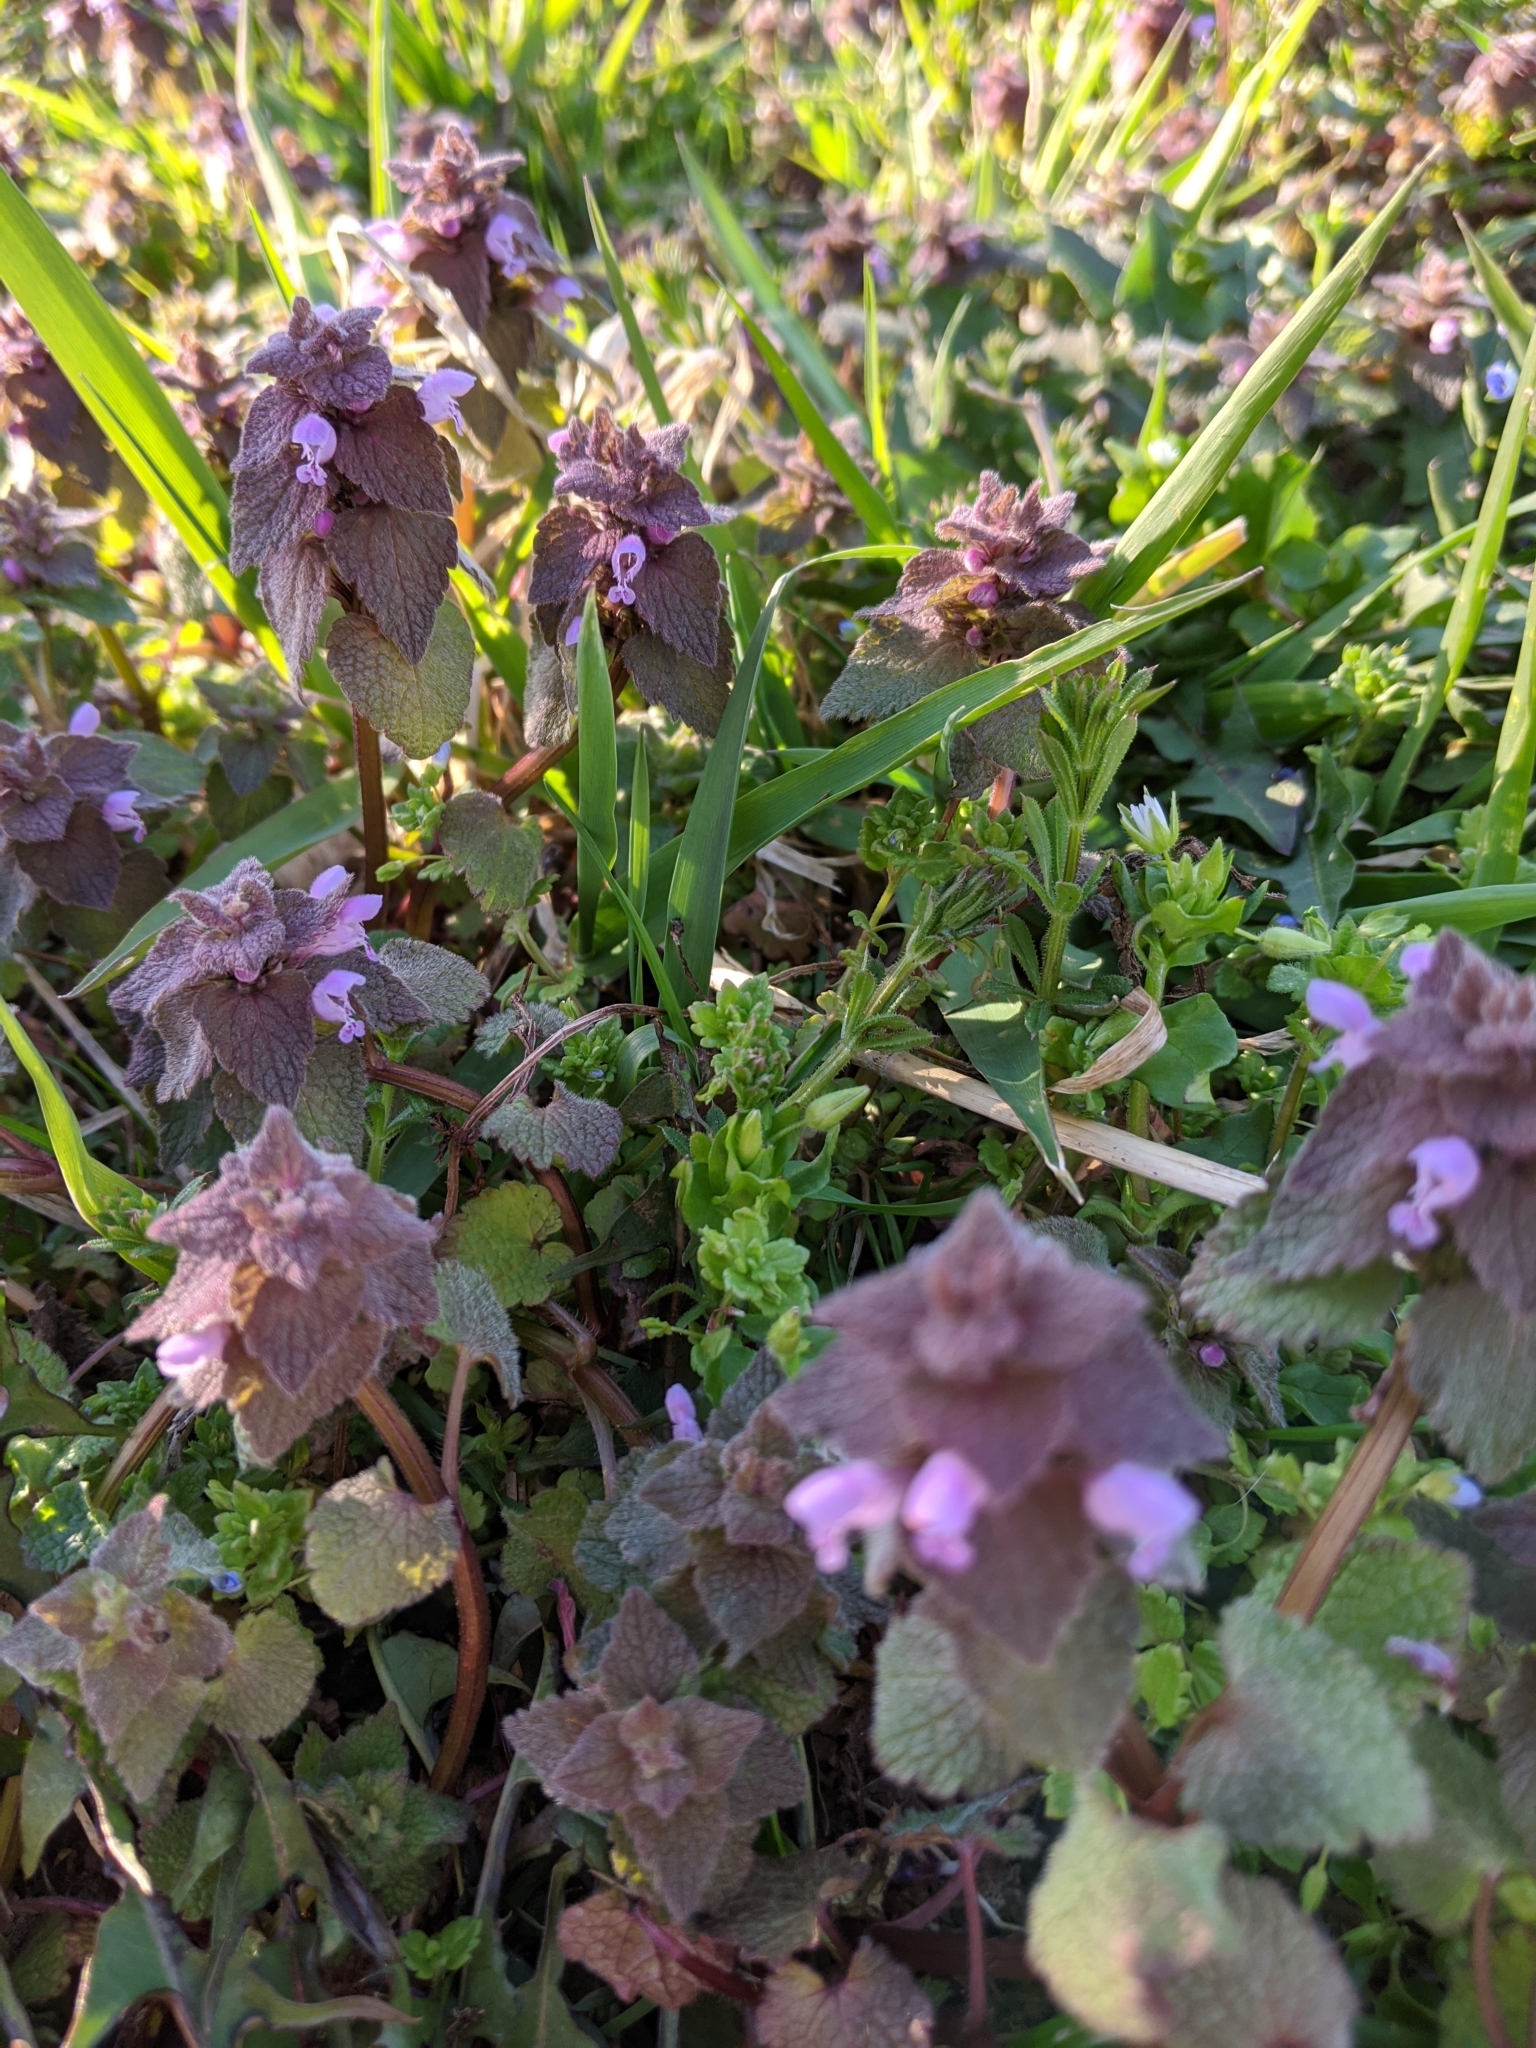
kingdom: Plantae
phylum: Tracheophyta
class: Magnoliopsida
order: Lamiales
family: Lamiaceae
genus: Lamium
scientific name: Lamium purpureum
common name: Red dead-nettle
